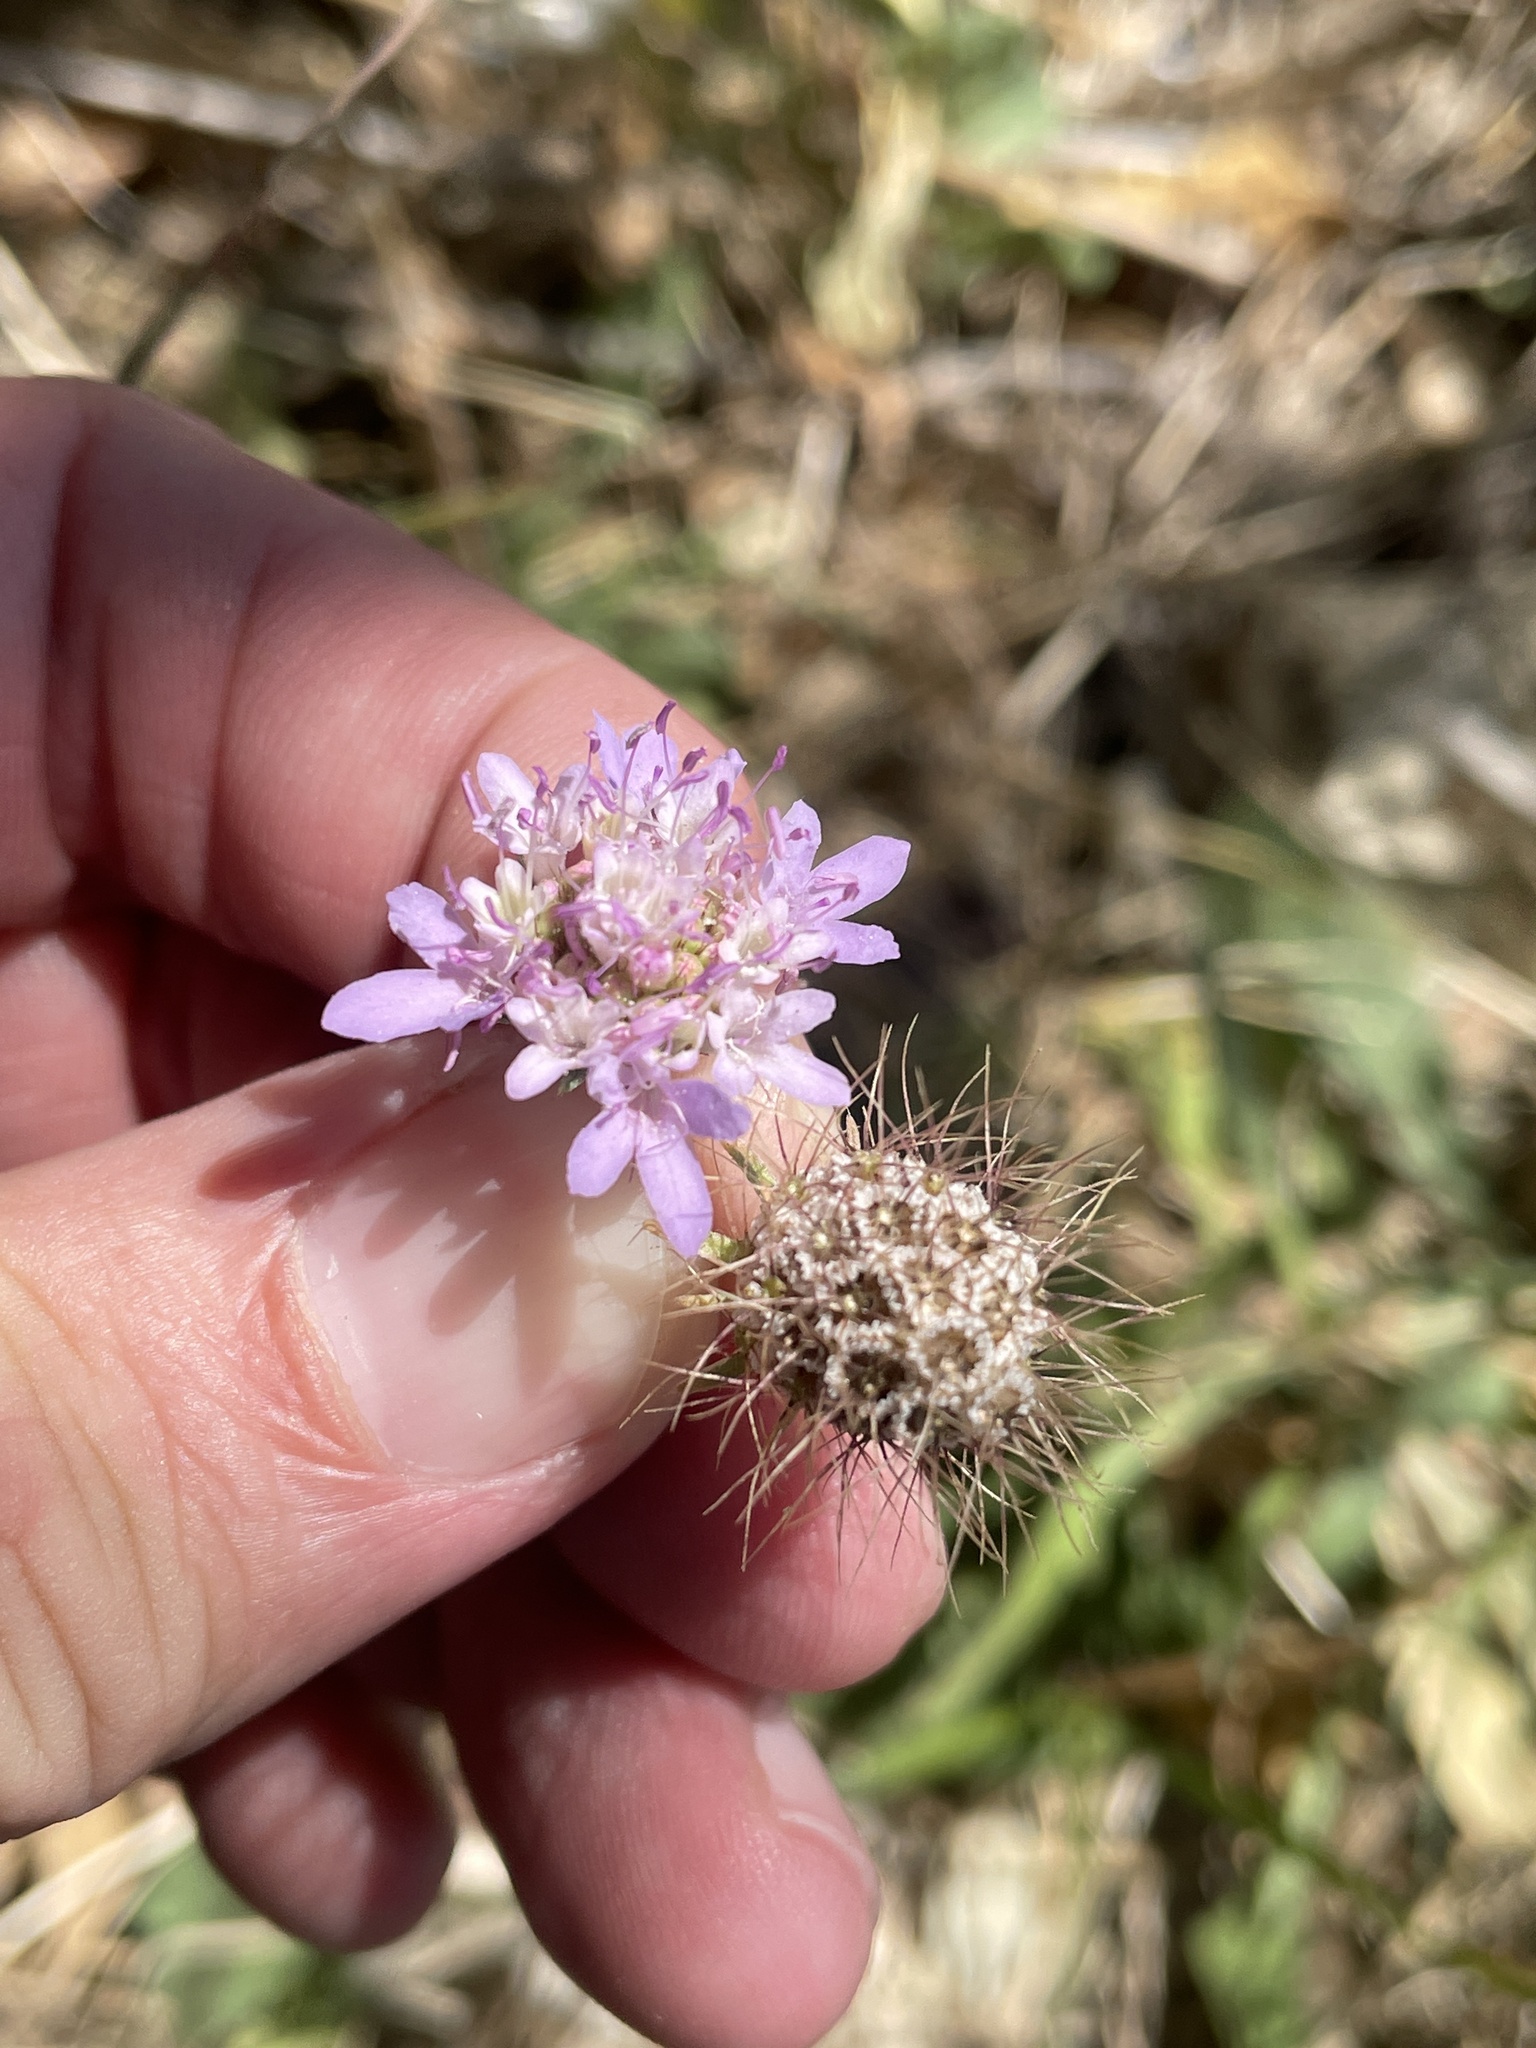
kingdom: Plantae
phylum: Tracheophyta
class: Magnoliopsida
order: Dipsacales
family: Caprifoliaceae
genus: Sixalix
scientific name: Sixalix atropurpurea
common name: Sweet scabious
